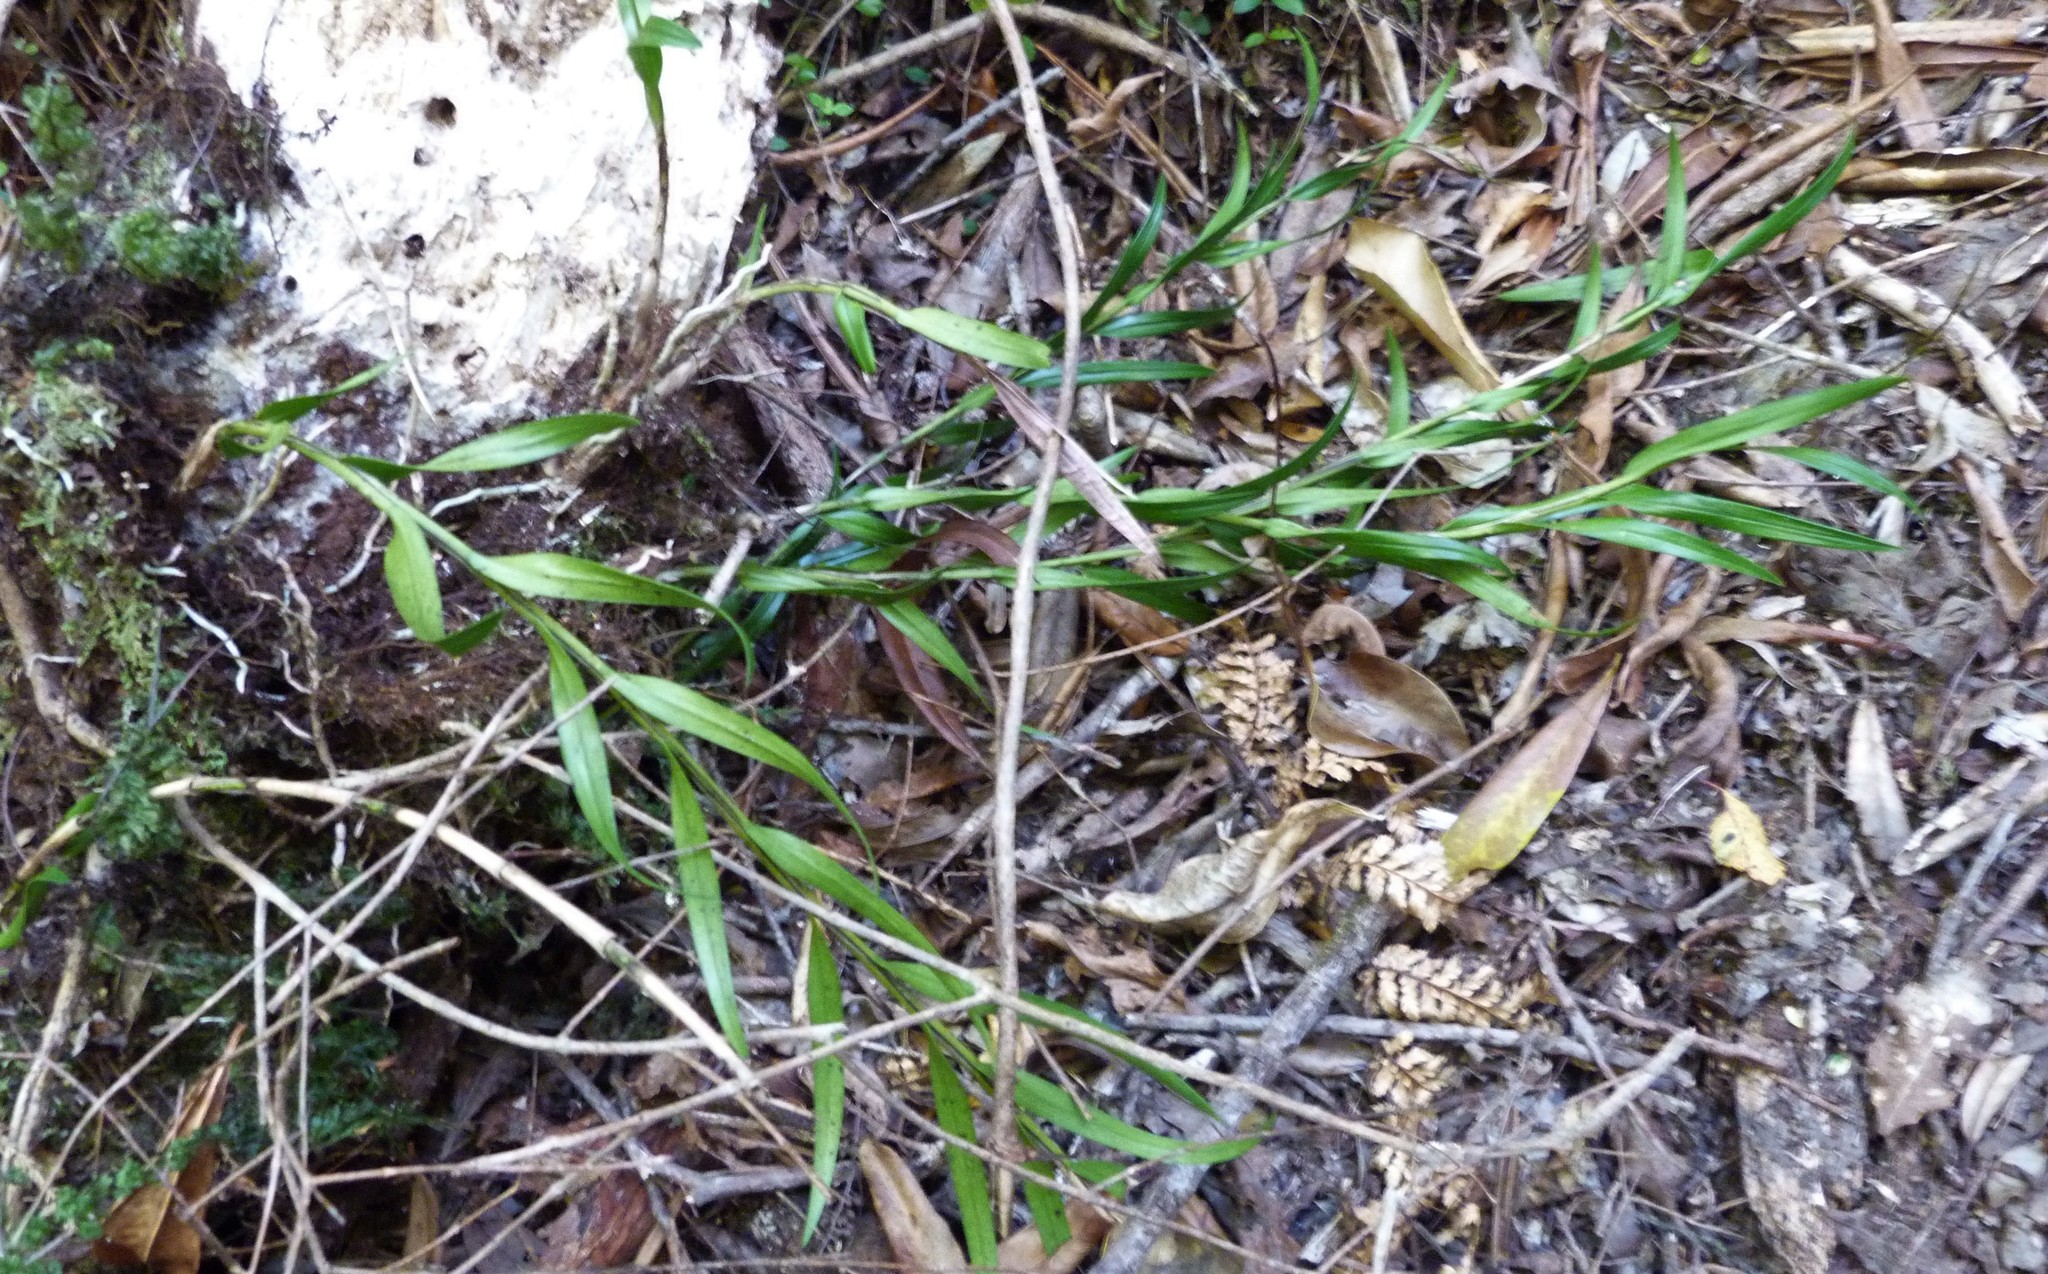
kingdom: Plantae
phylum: Tracheophyta
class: Liliopsida
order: Asparagales
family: Orchidaceae
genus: Earina
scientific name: Earina autumnalis
